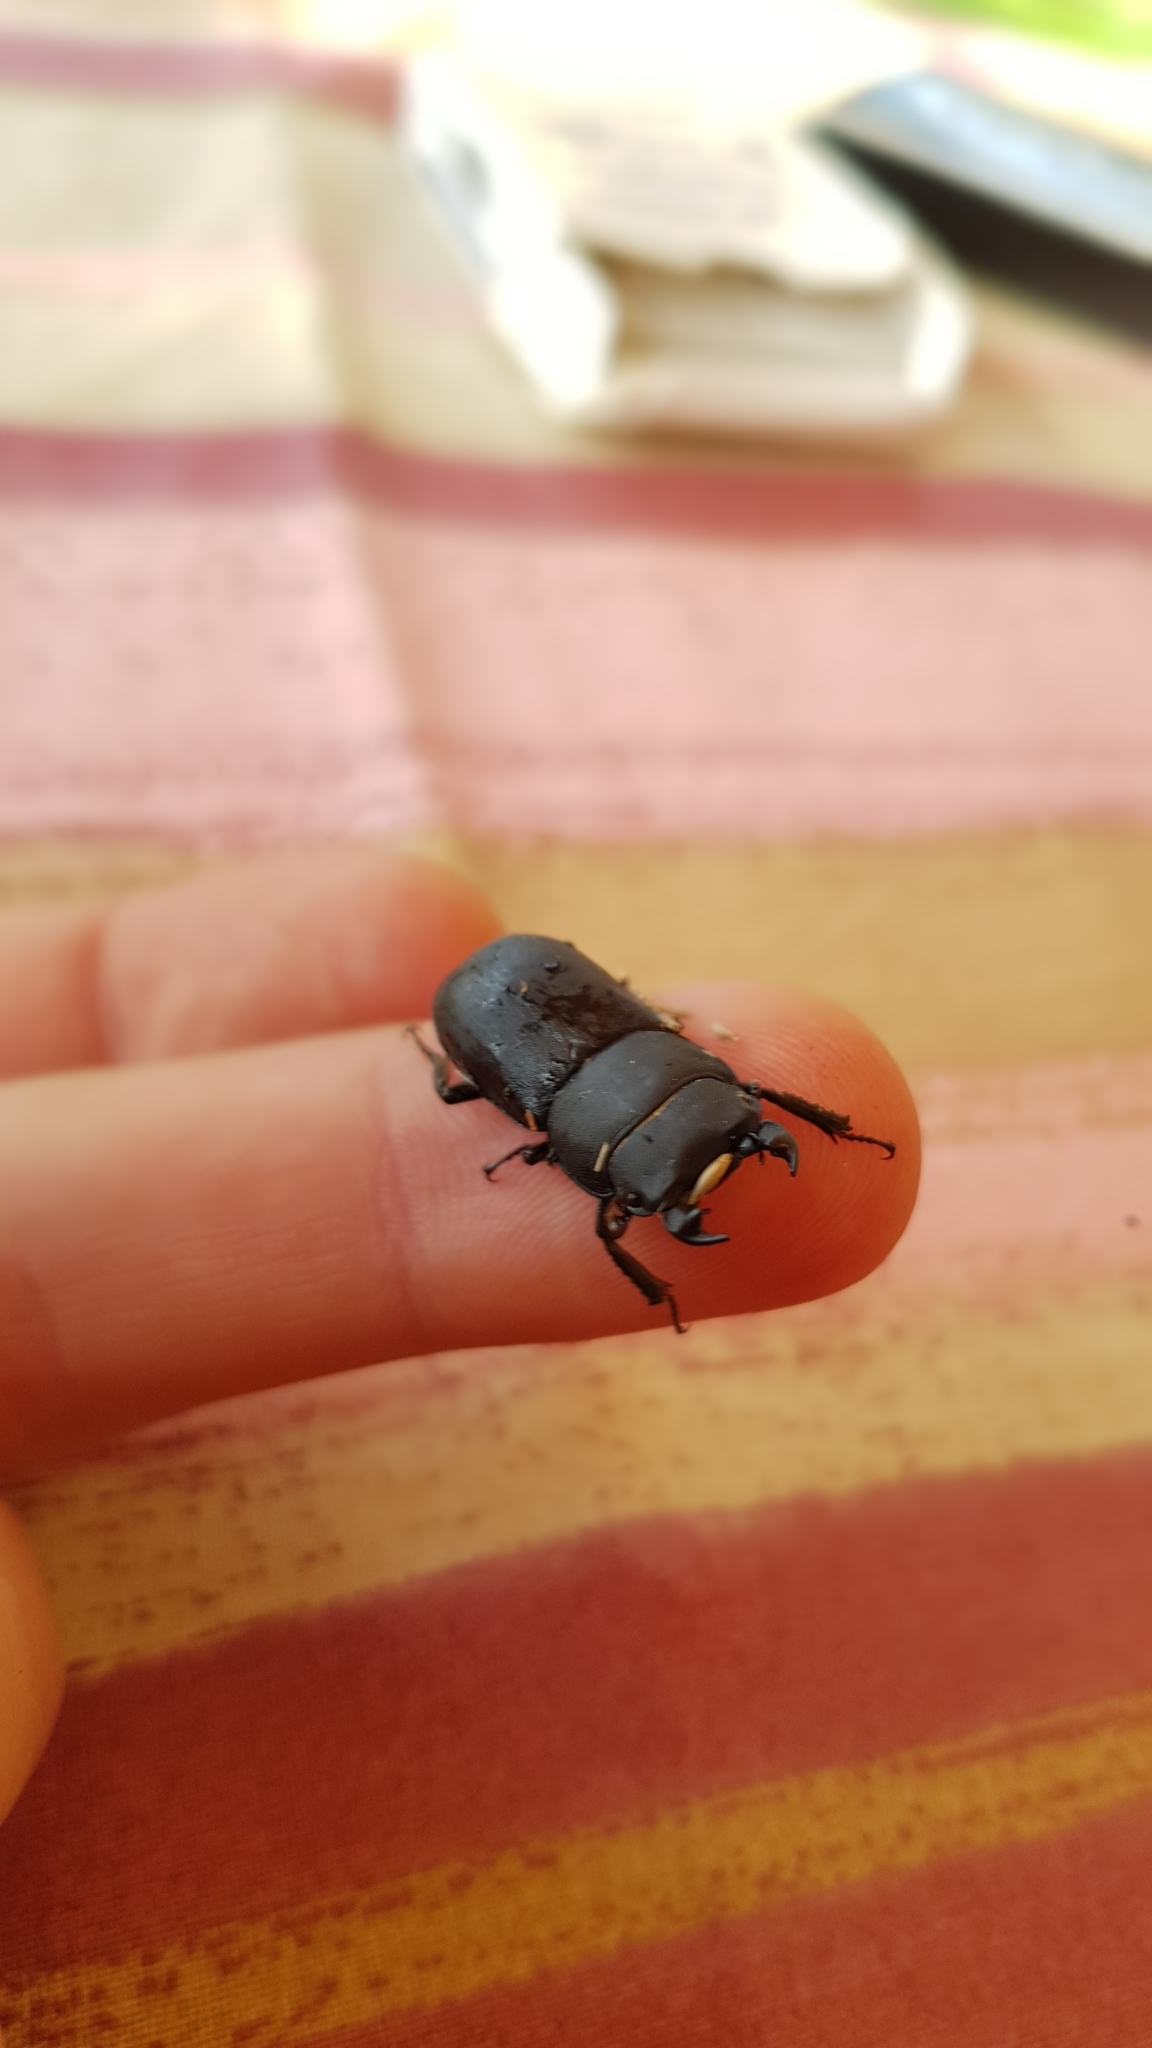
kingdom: Animalia
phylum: Arthropoda
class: Insecta
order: Coleoptera
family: Lucanidae
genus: Dorcus
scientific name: Dorcus parallelipipedus
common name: Lesser stag beetle
